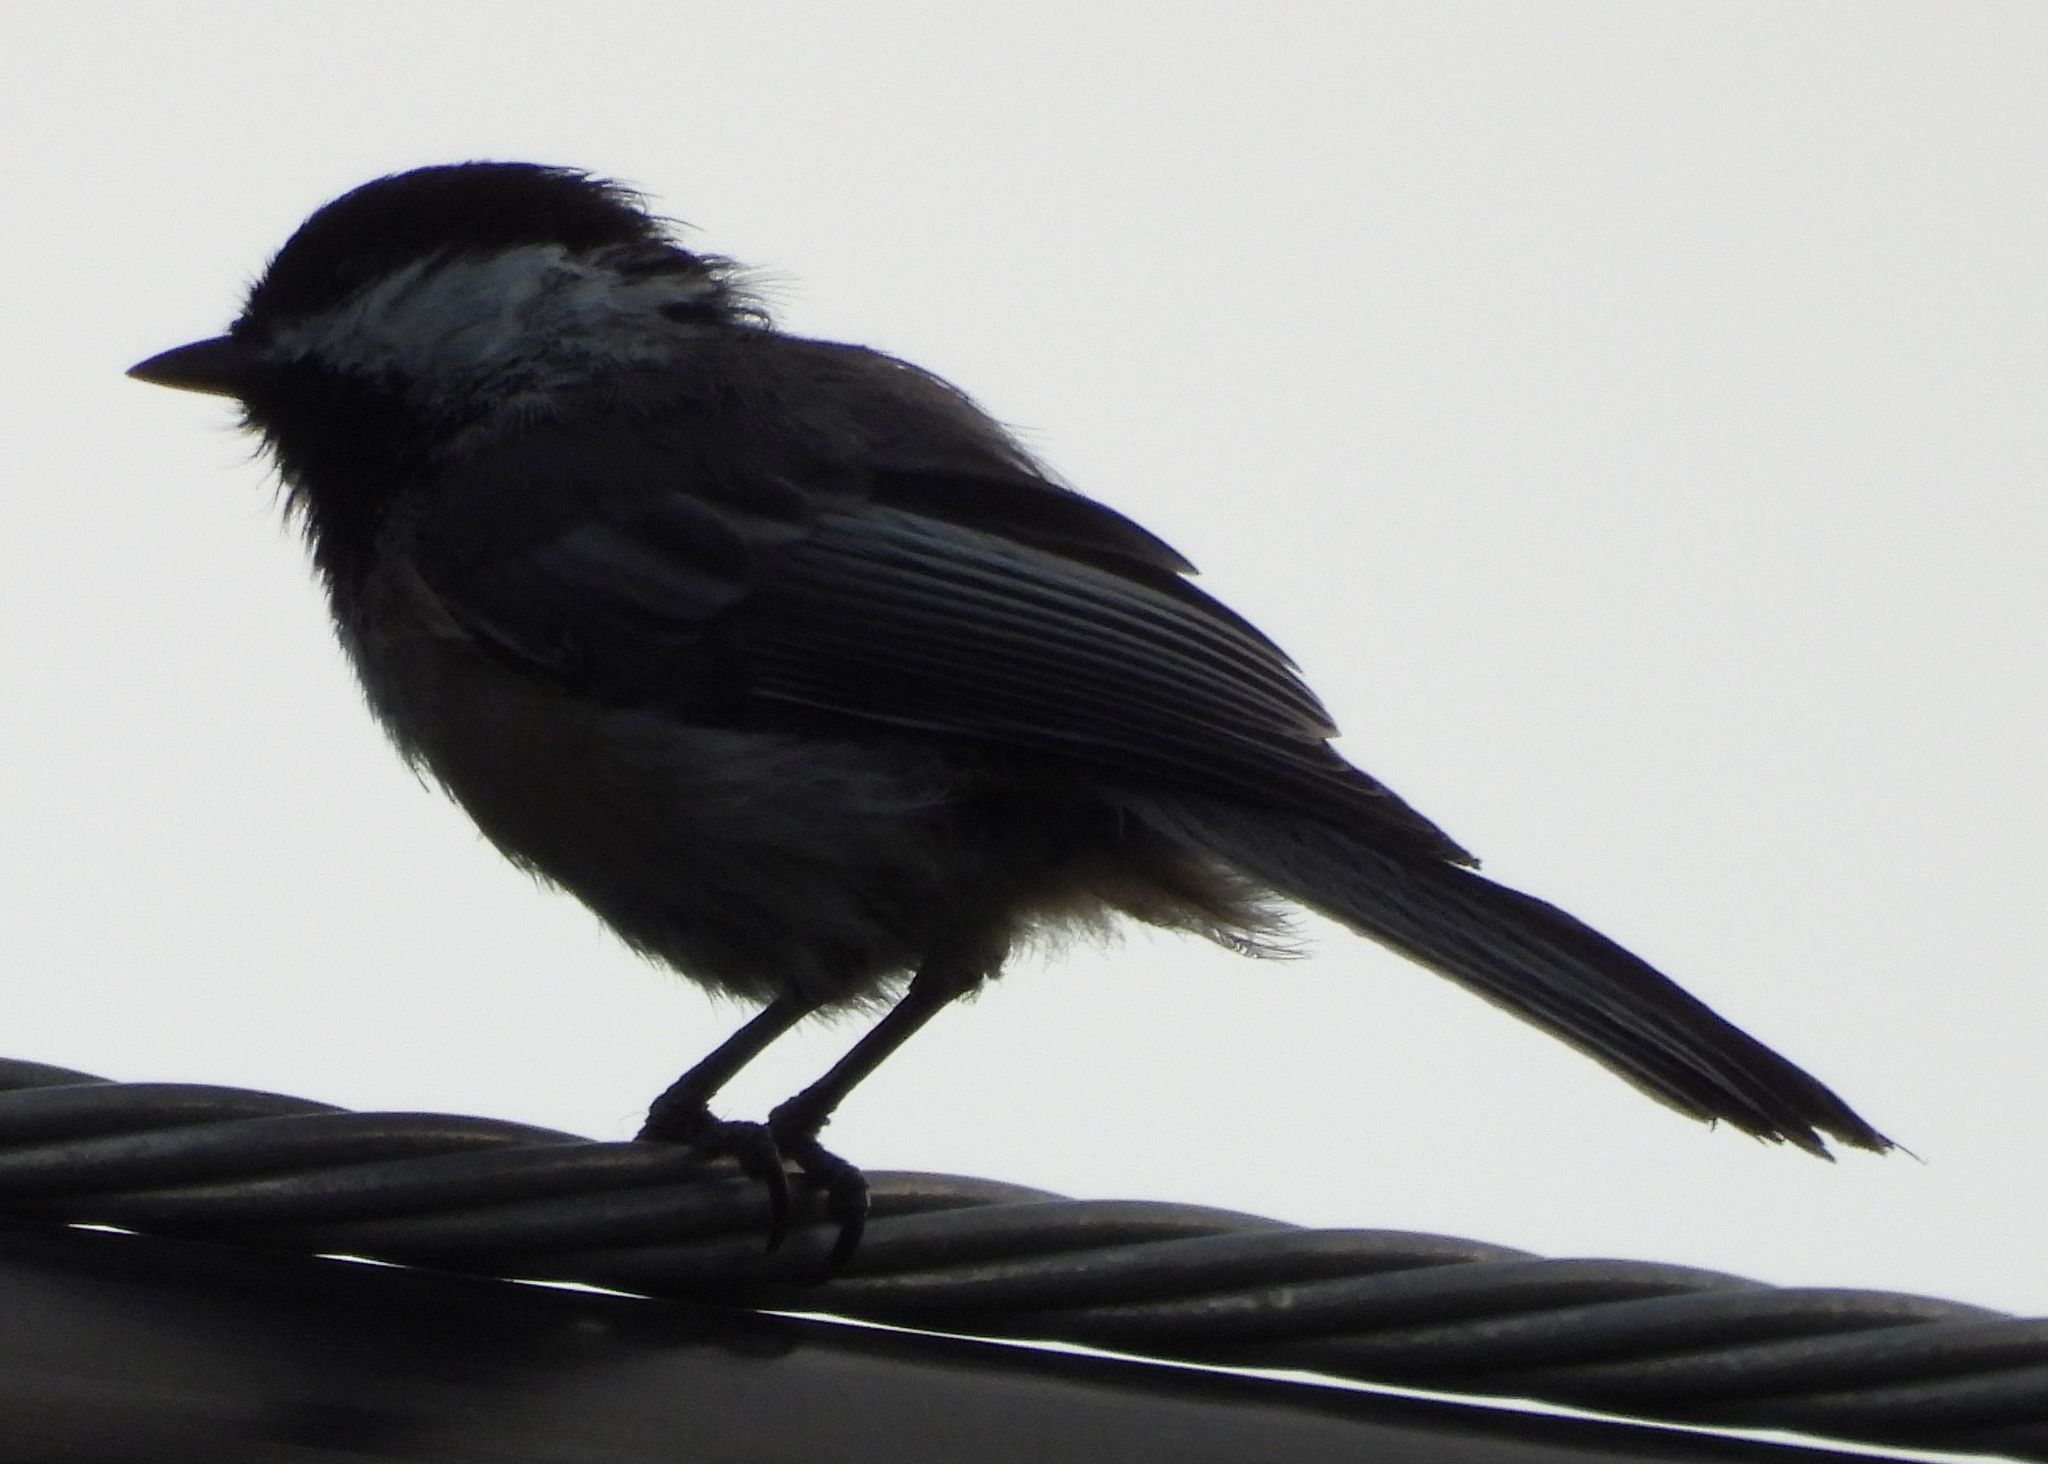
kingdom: Animalia
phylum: Chordata
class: Aves
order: Passeriformes
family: Paridae
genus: Poecile
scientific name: Poecile atricapillus
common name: Black-capped chickadee
